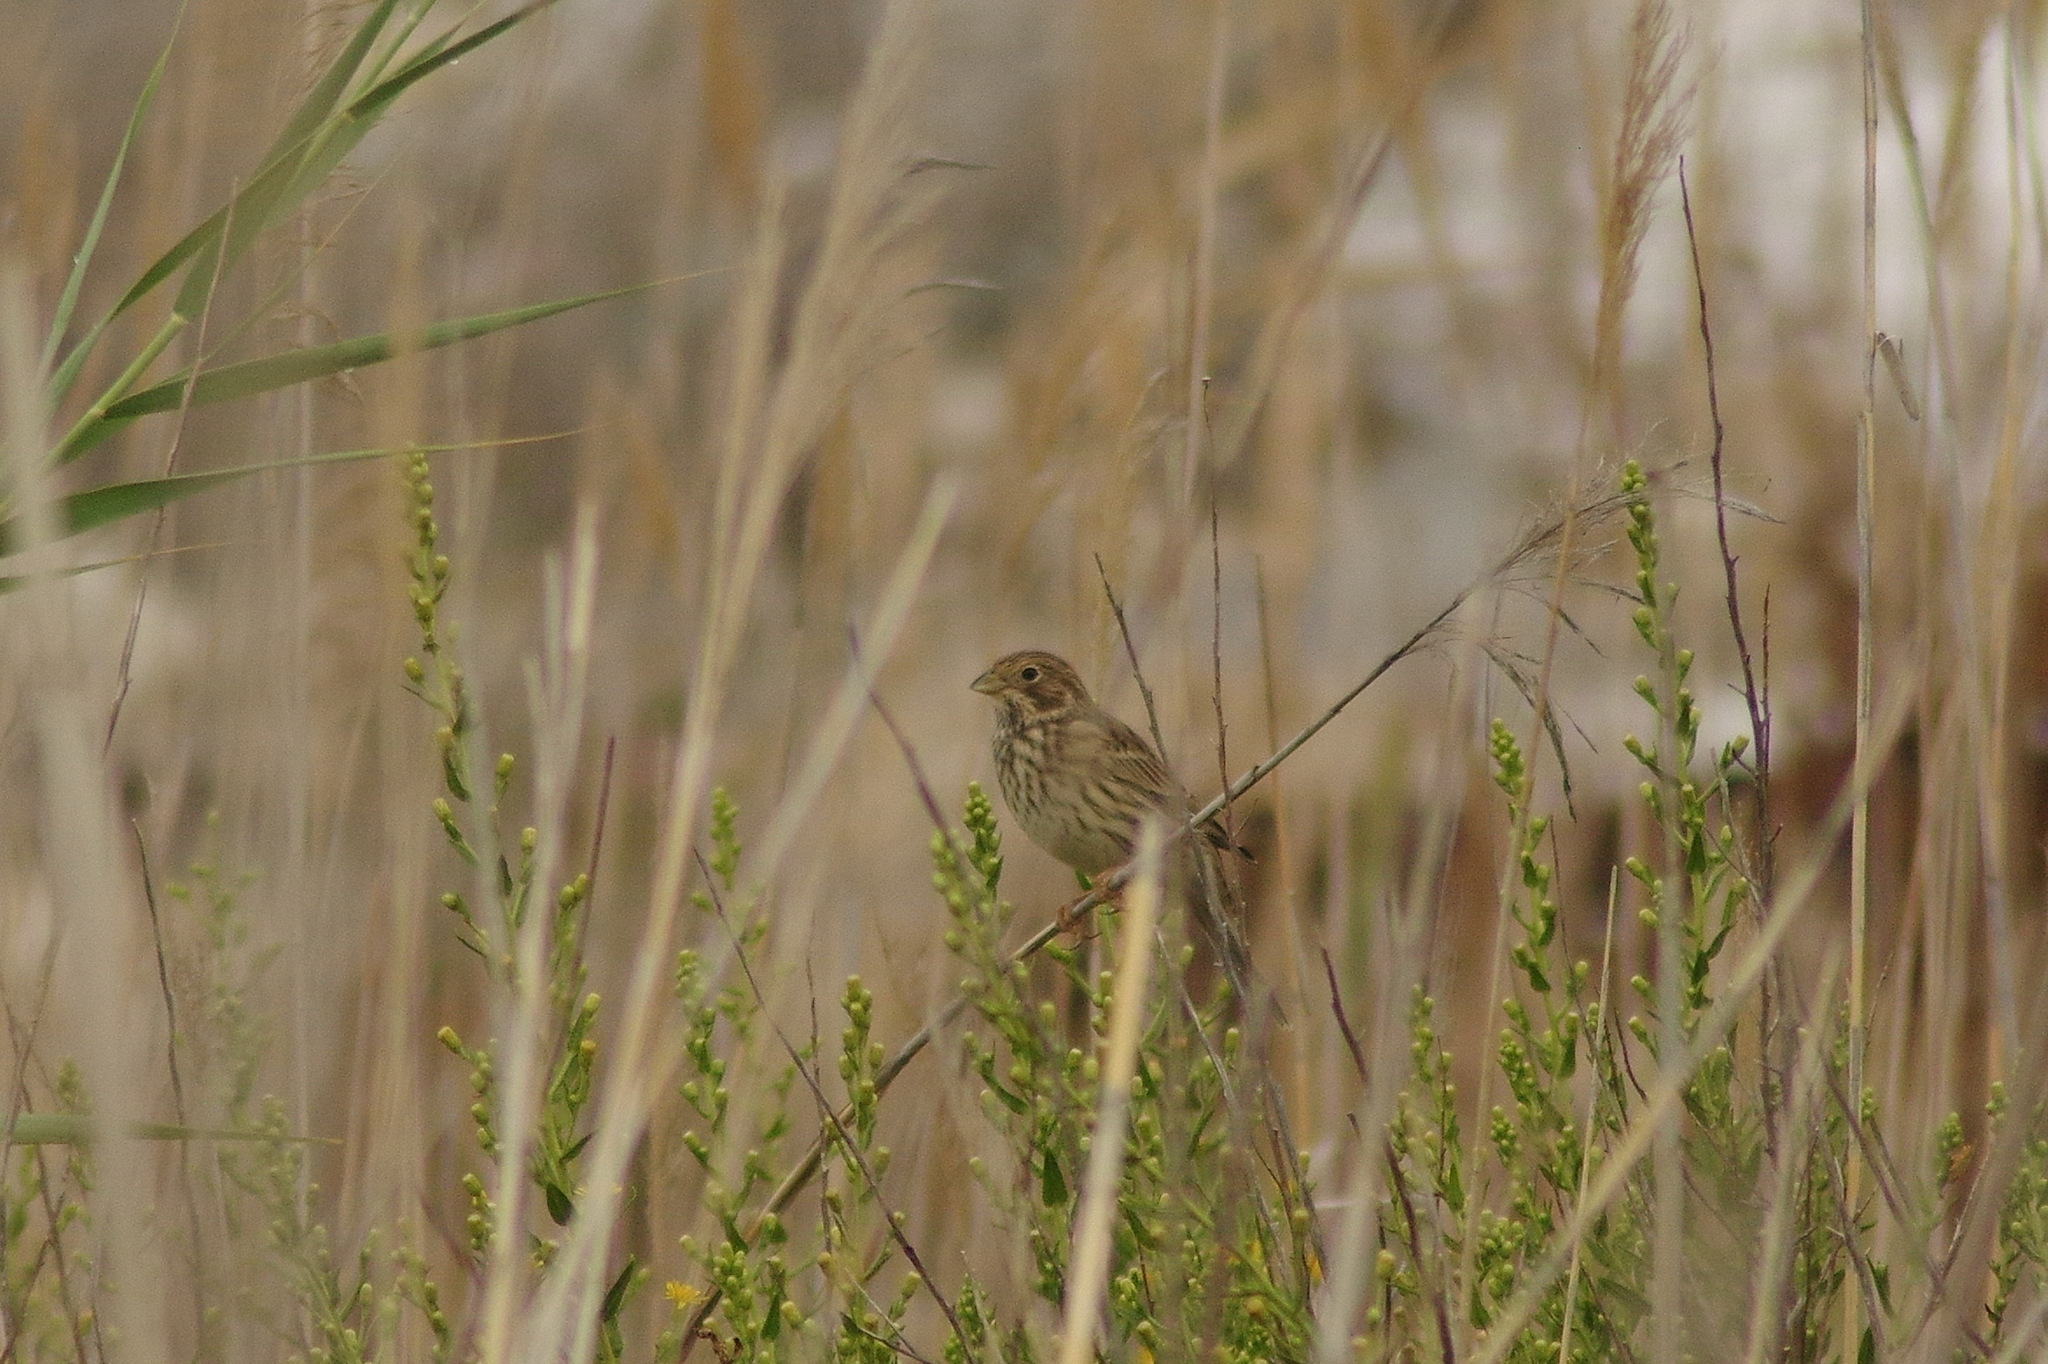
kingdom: Animalia
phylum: Chordata
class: Aves
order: Passeriformes
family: Emberizidae
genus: Emberiza
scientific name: Emberiza calandra
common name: Corn bunting
